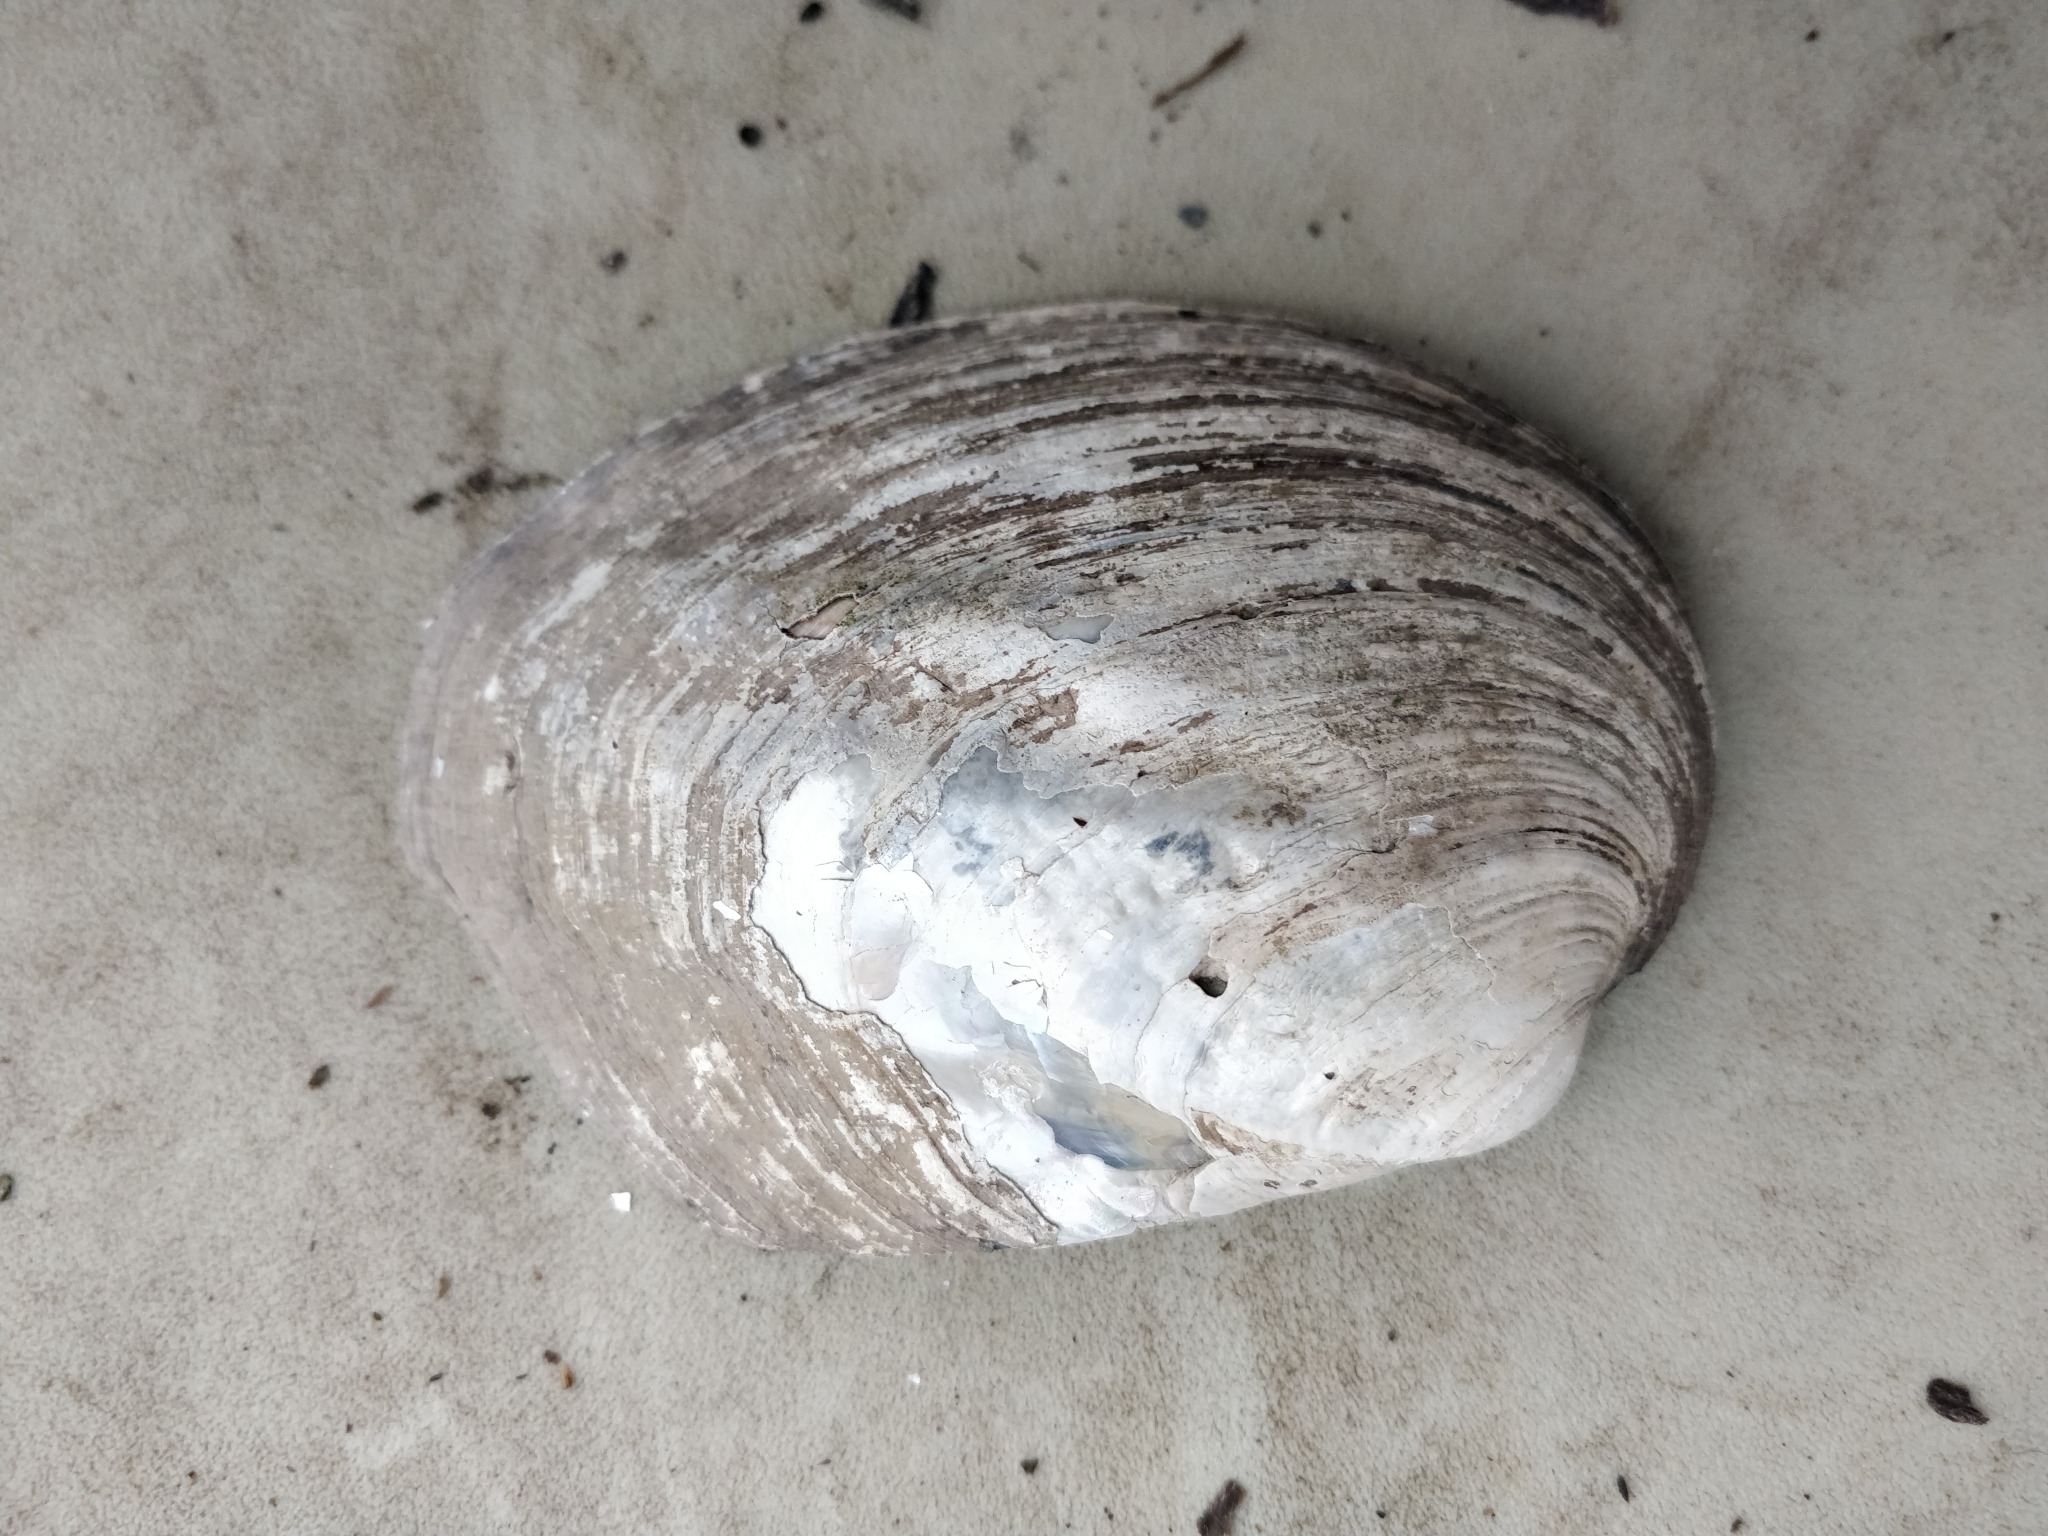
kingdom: Animalia
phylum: Mollusca
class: Bivalvia
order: Unionida
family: Unionidae
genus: Amblema
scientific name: Amblema plicata
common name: Threeridge
